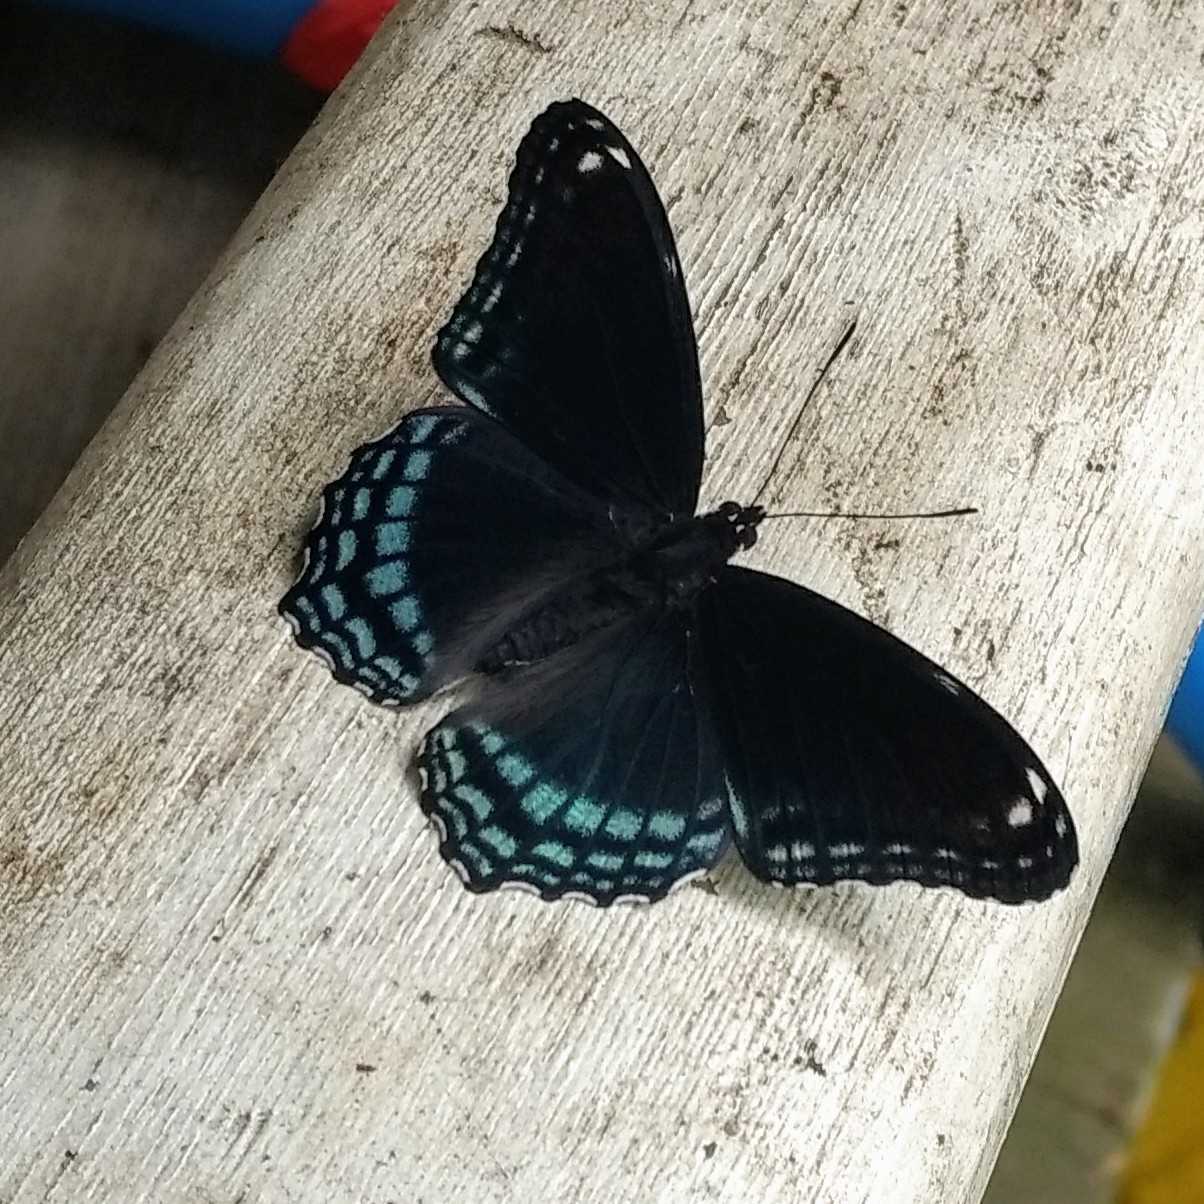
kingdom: Animalia
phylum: Arthropoda
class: Insecta
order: Lepidoptera
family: Nymphalidae
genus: Limenitis
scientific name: Limenitis arthemis
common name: Red-spotted admiral
